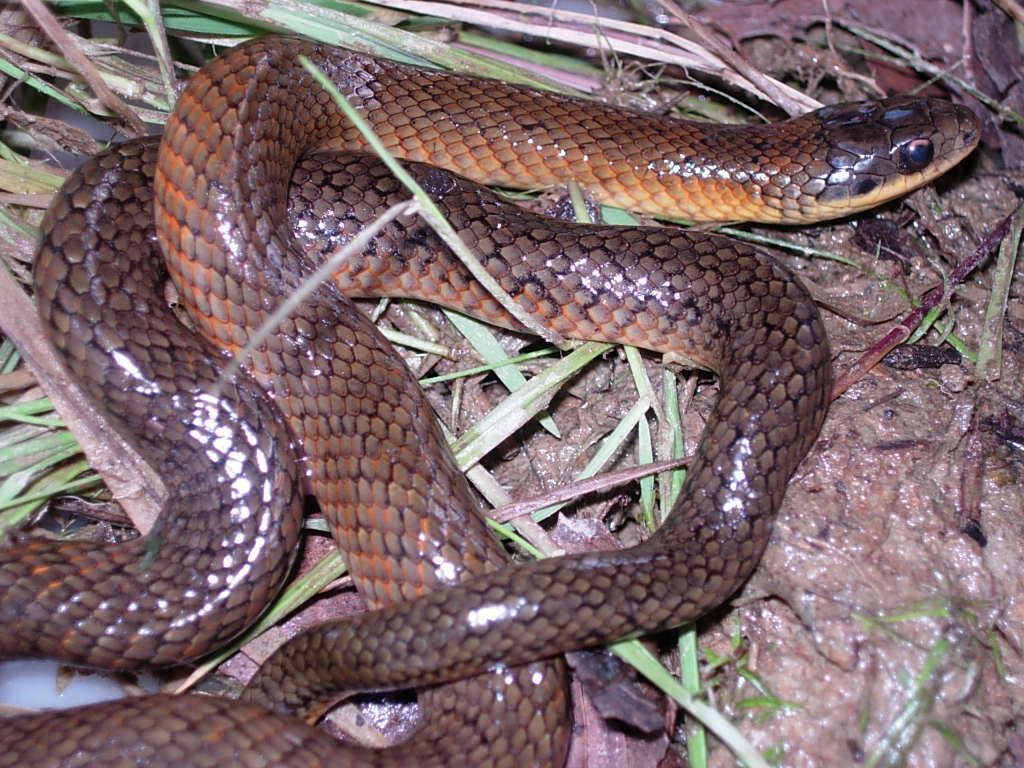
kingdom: Animalia
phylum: Chordata
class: Squamata
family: Colubridae
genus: Erythrolamprus
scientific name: Erythrolamprus poecilogyrus
